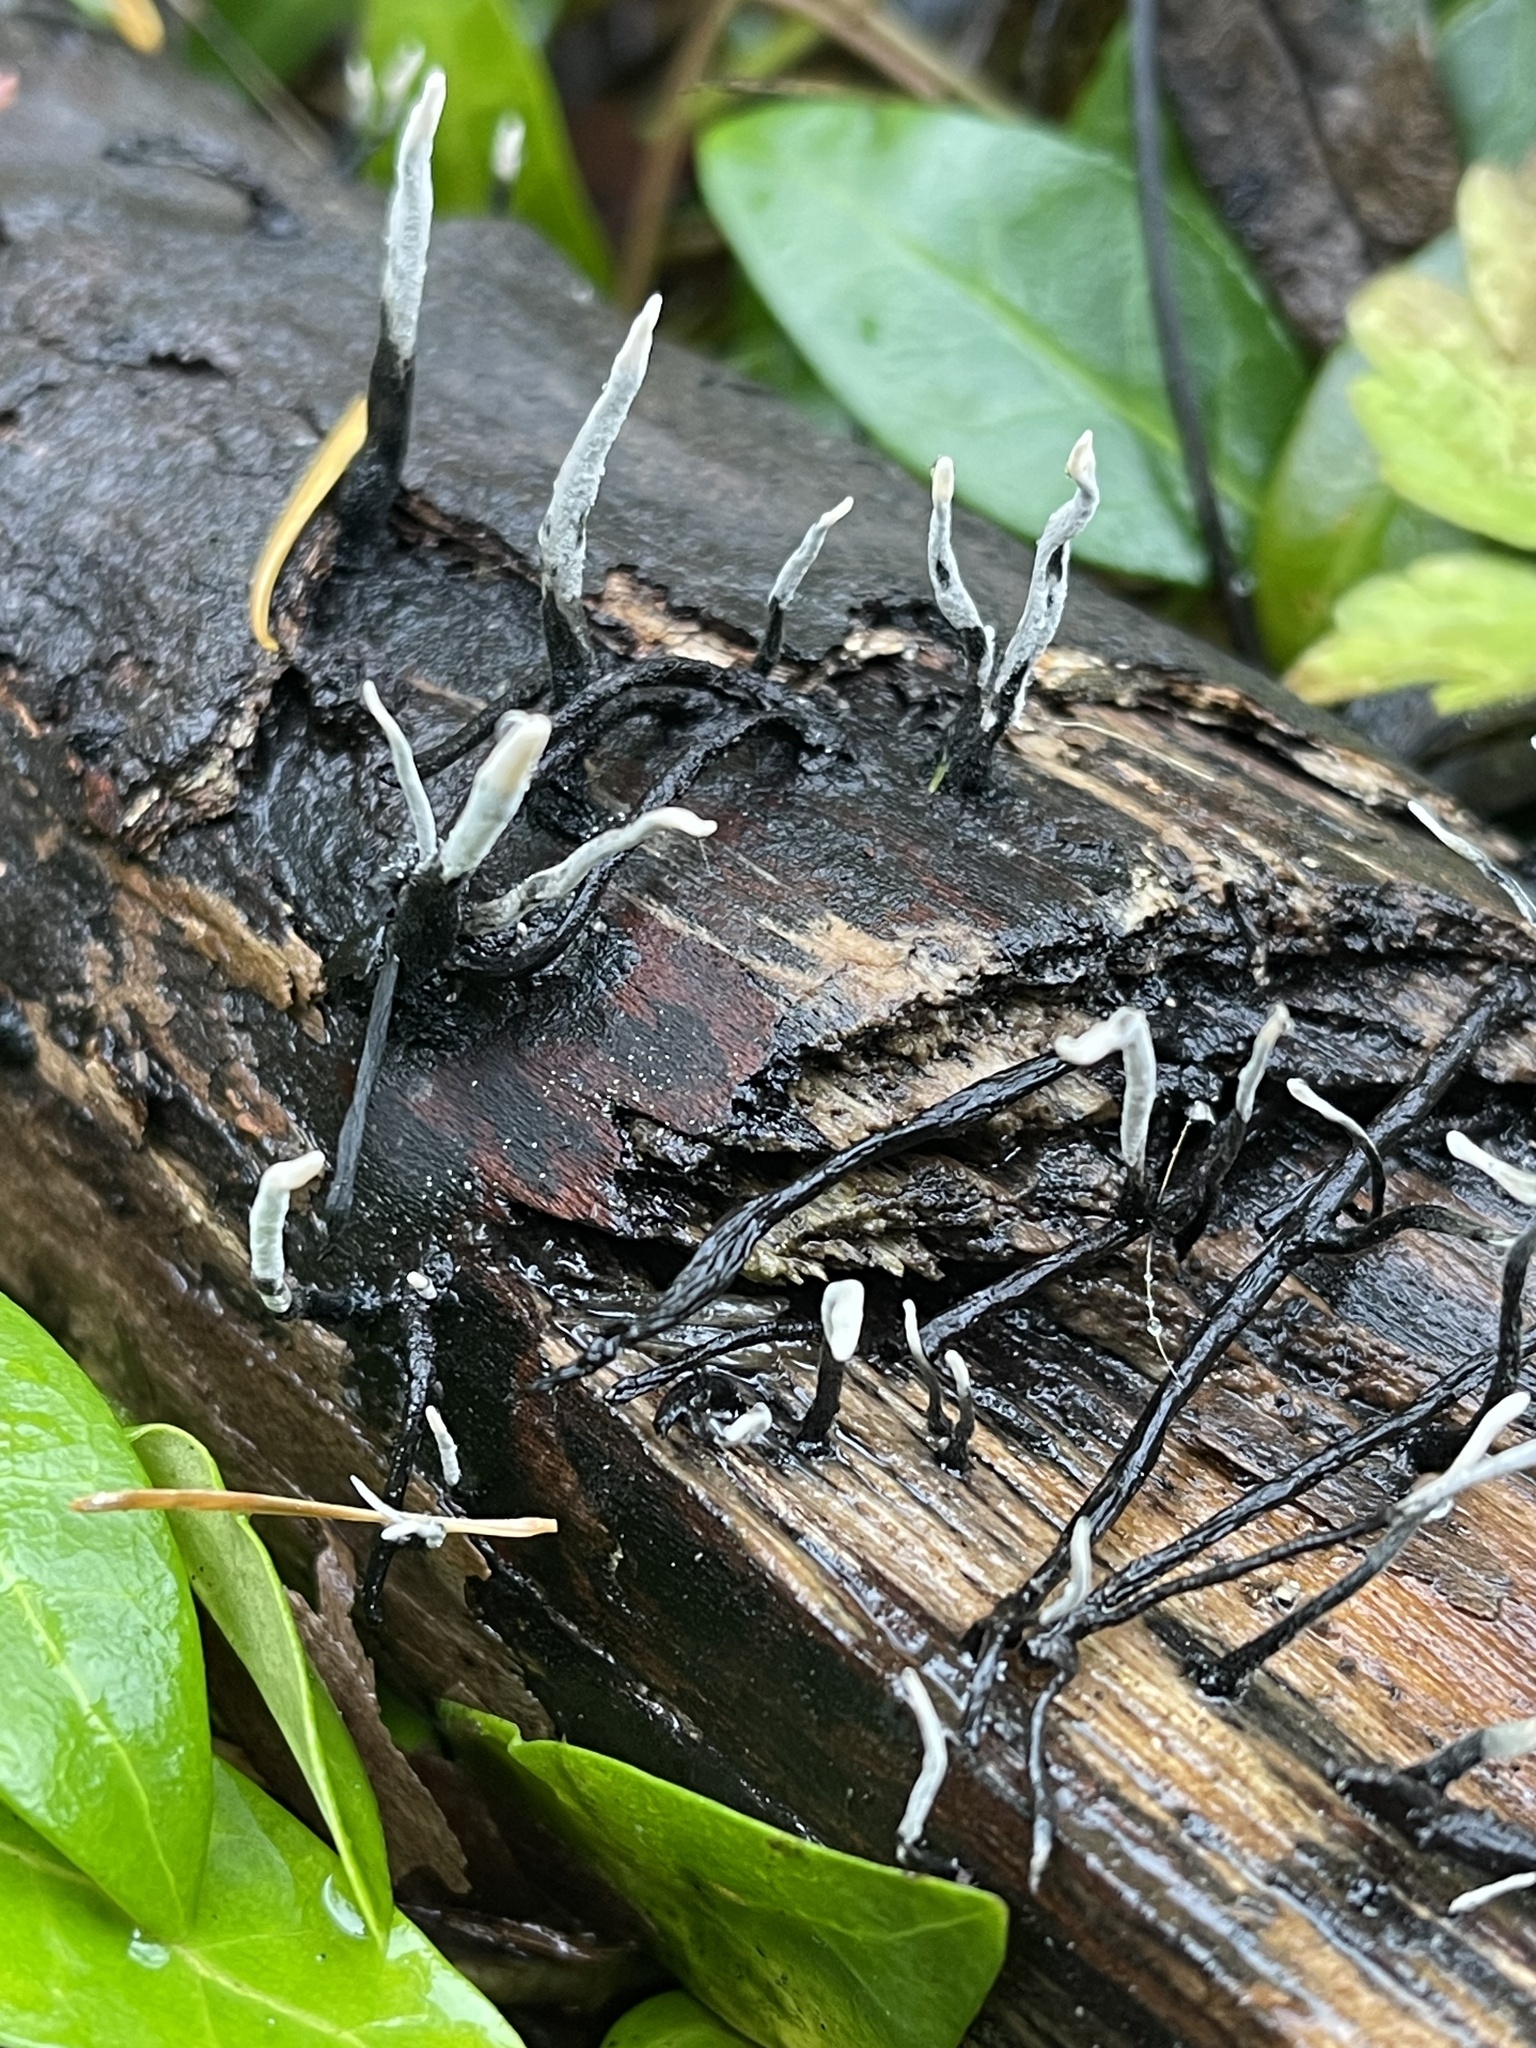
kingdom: Fungi
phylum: Ascomycota
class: Sordariomycetes
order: Xylariales
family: Xylariaceae
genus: Xylaria
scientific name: Xylaria hypoxylon
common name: Candle-snuff fungus
